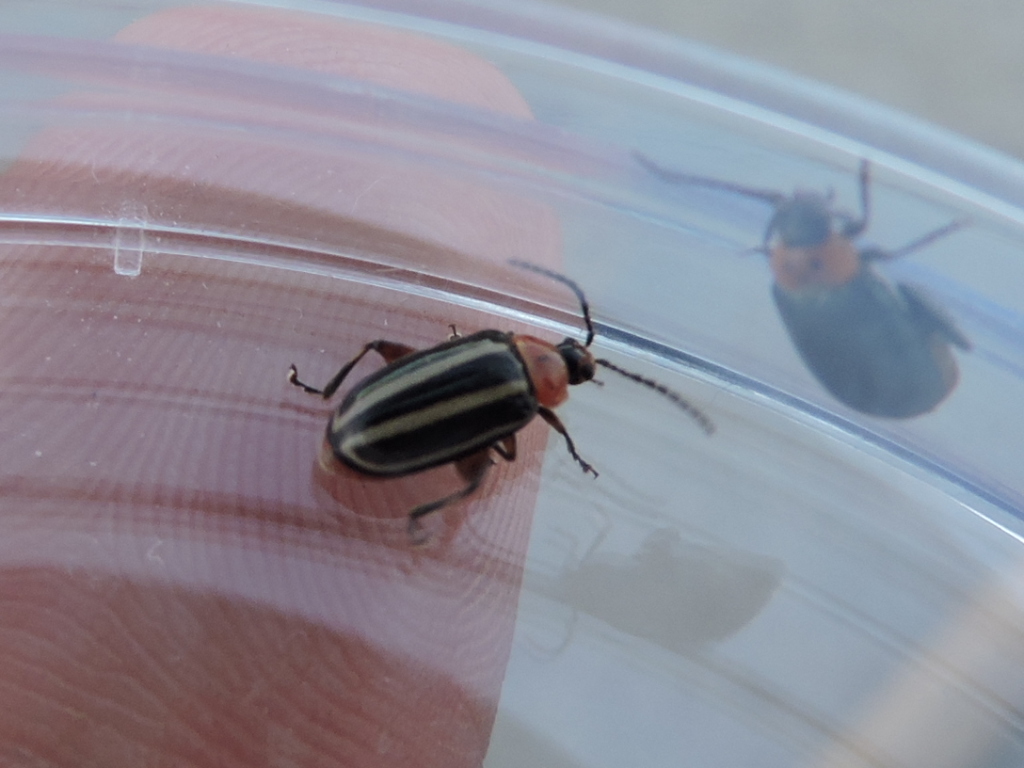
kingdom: Animalia
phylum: Arthropoda
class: Insecta
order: Coleoptera
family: Chrysomelidae
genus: Disonycha
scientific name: Disonycha glabrata
